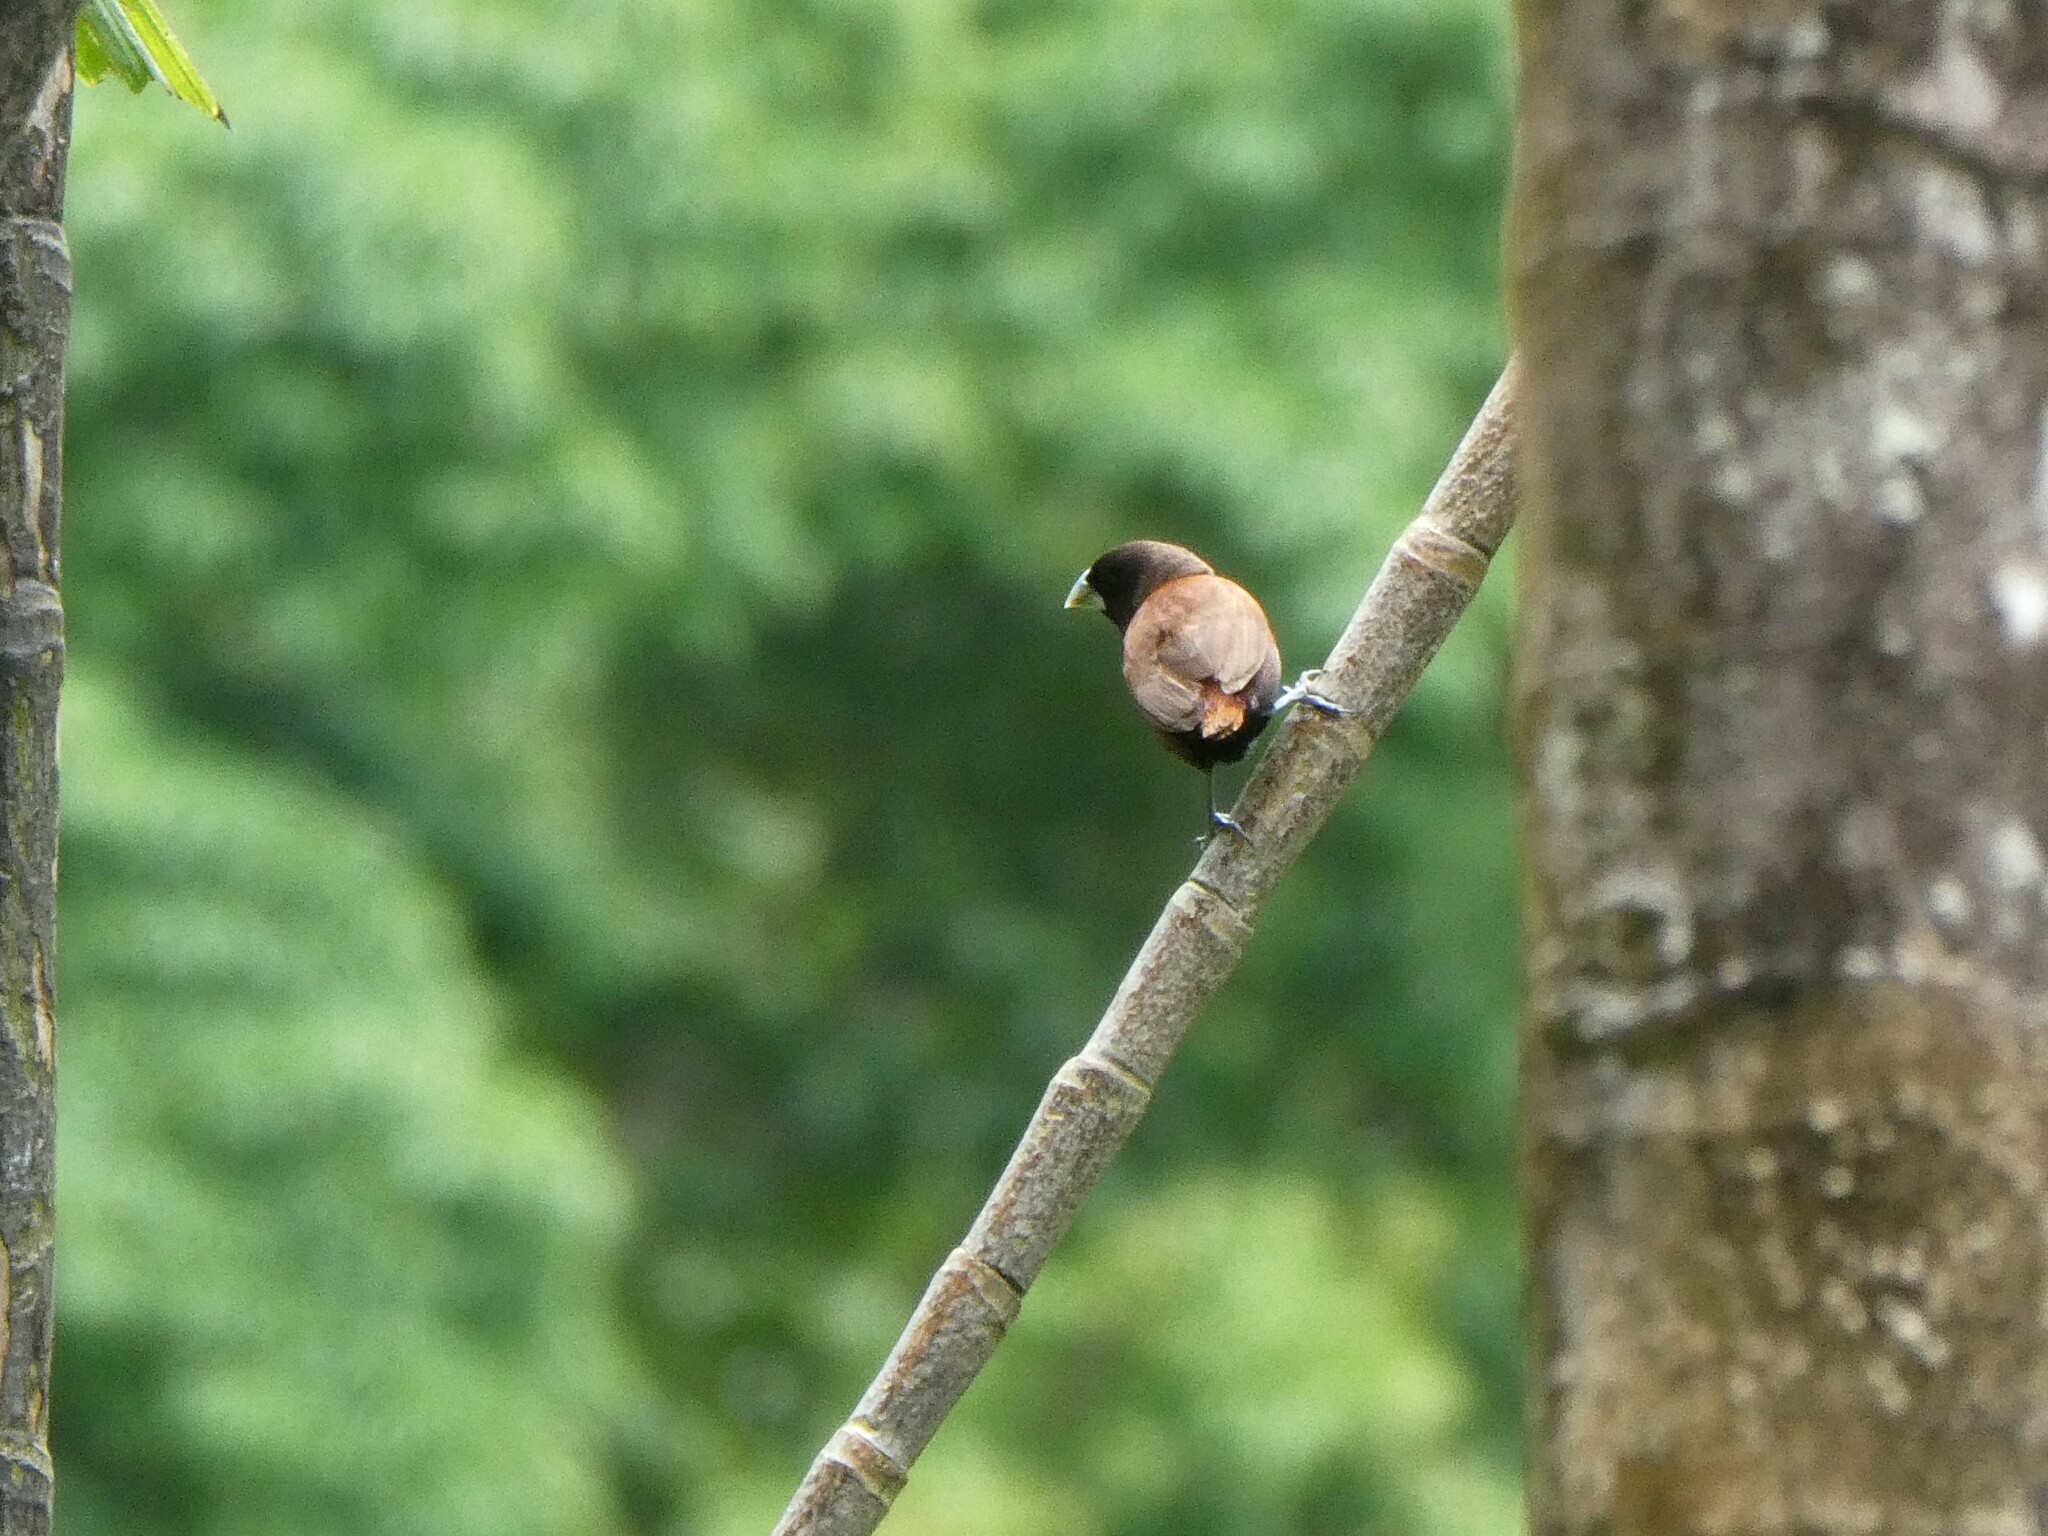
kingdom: Animalia
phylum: Chordata
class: Aves
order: Passeriformes
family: Estrildidae
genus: Lonchura
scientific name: Lonchura atricapilla
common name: Chestnut munia
